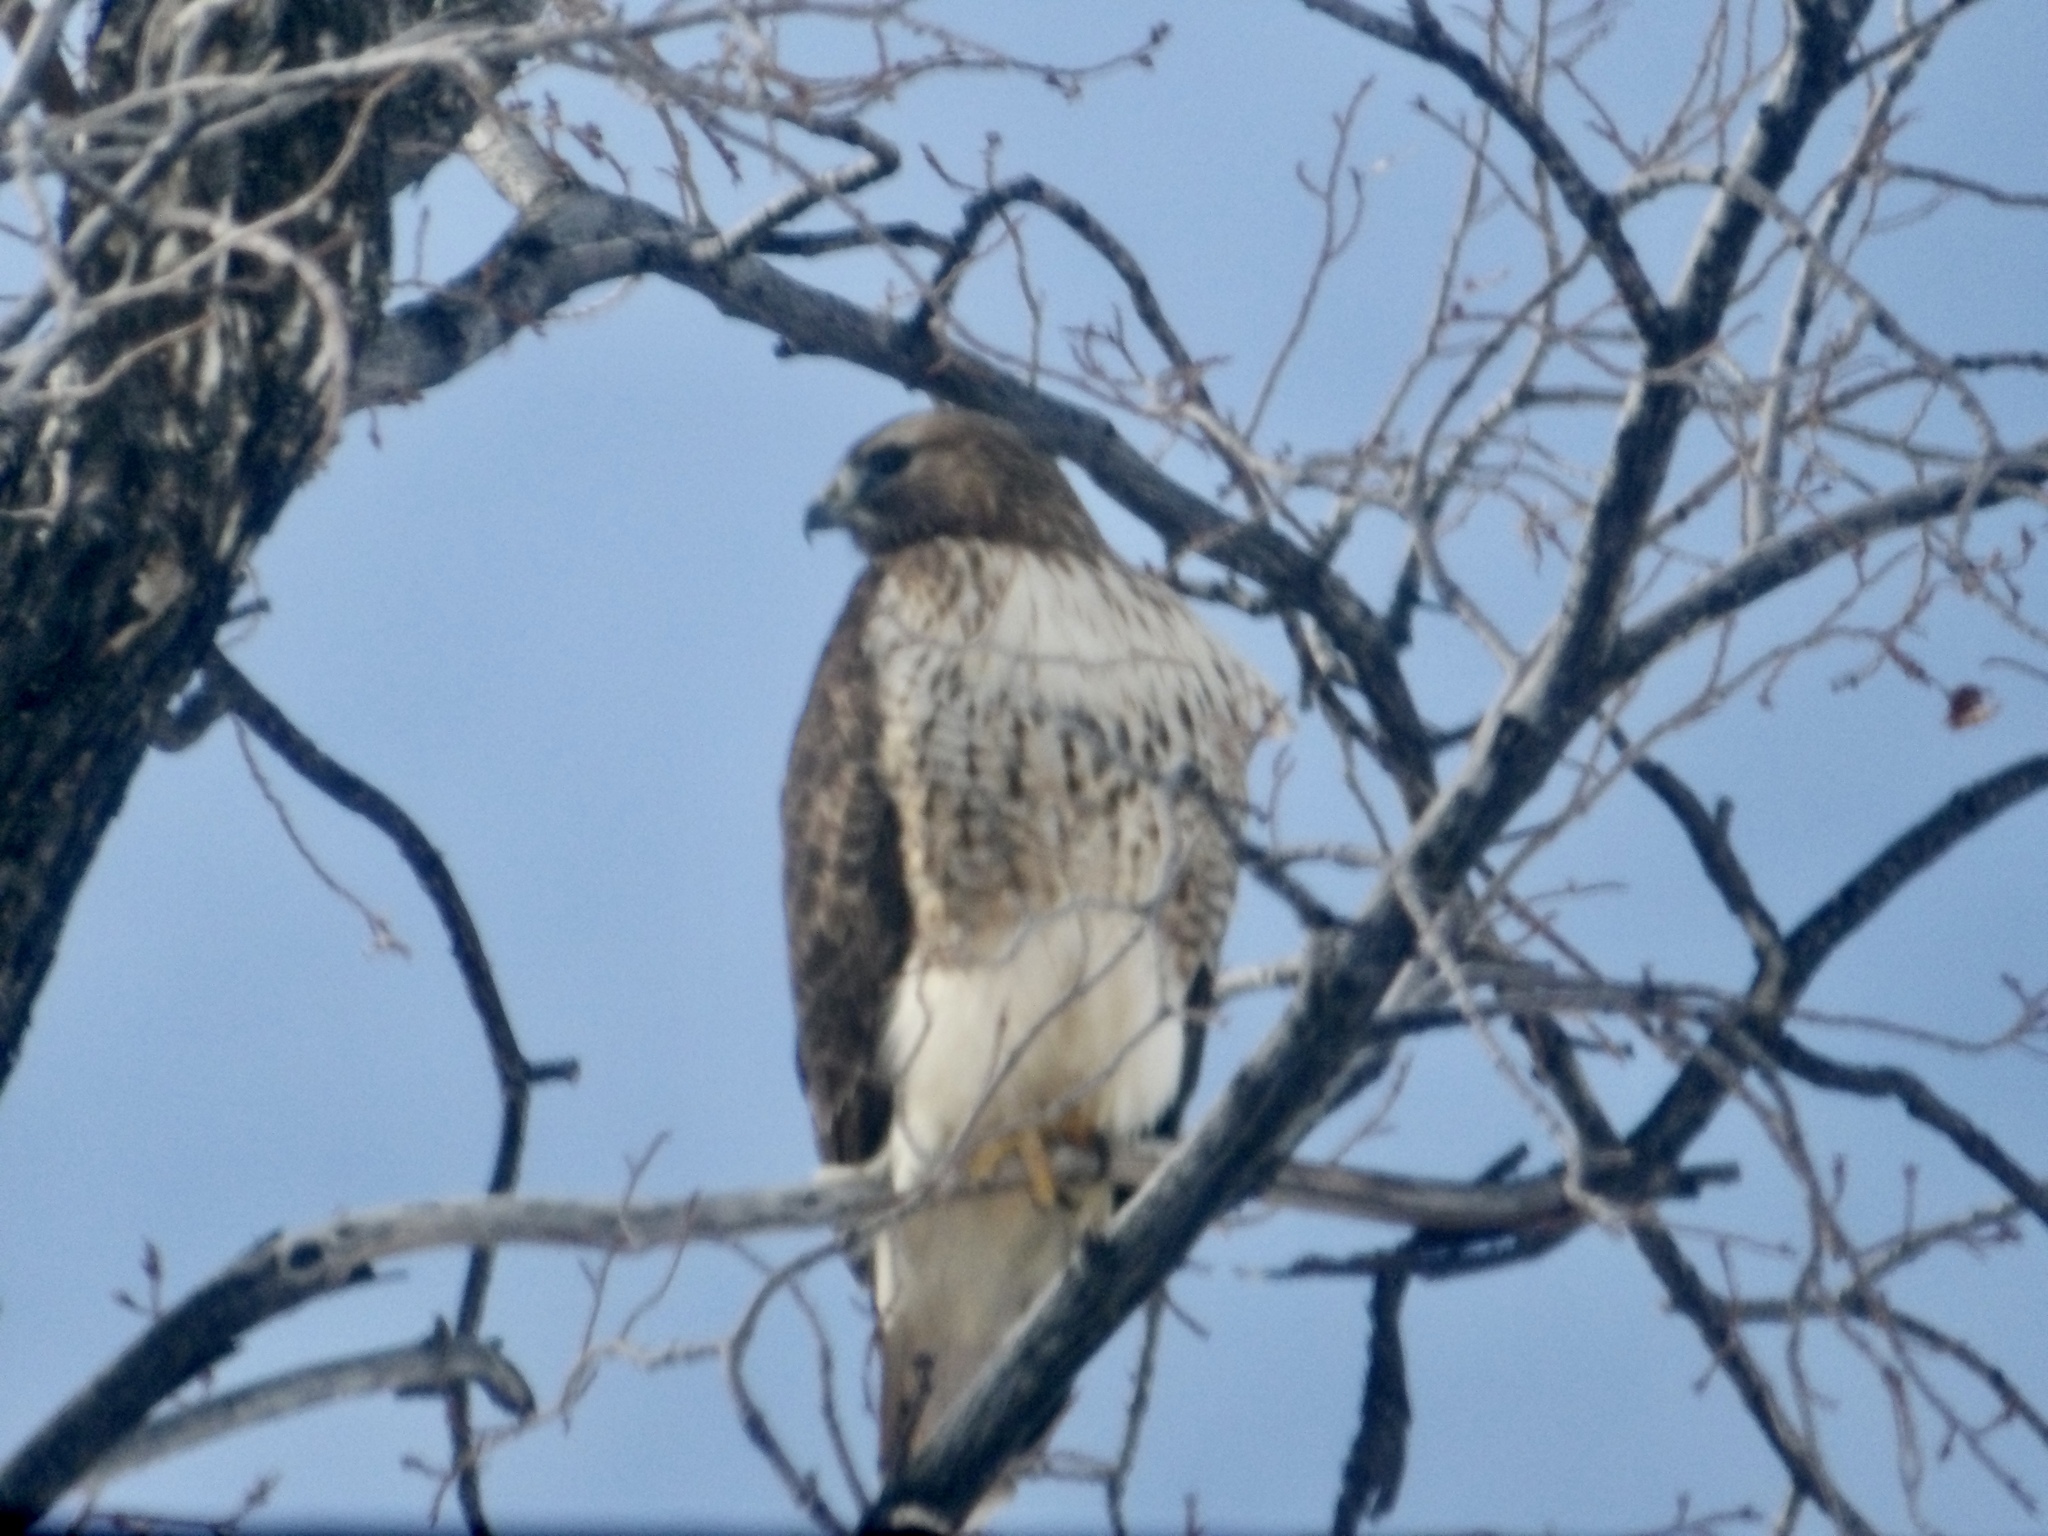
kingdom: Animalia
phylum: Chordata
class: Aves
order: Accipitriformes
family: Accipitridae
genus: Buteo
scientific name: Buteo jamaicensis
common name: Red-tailed hawk
